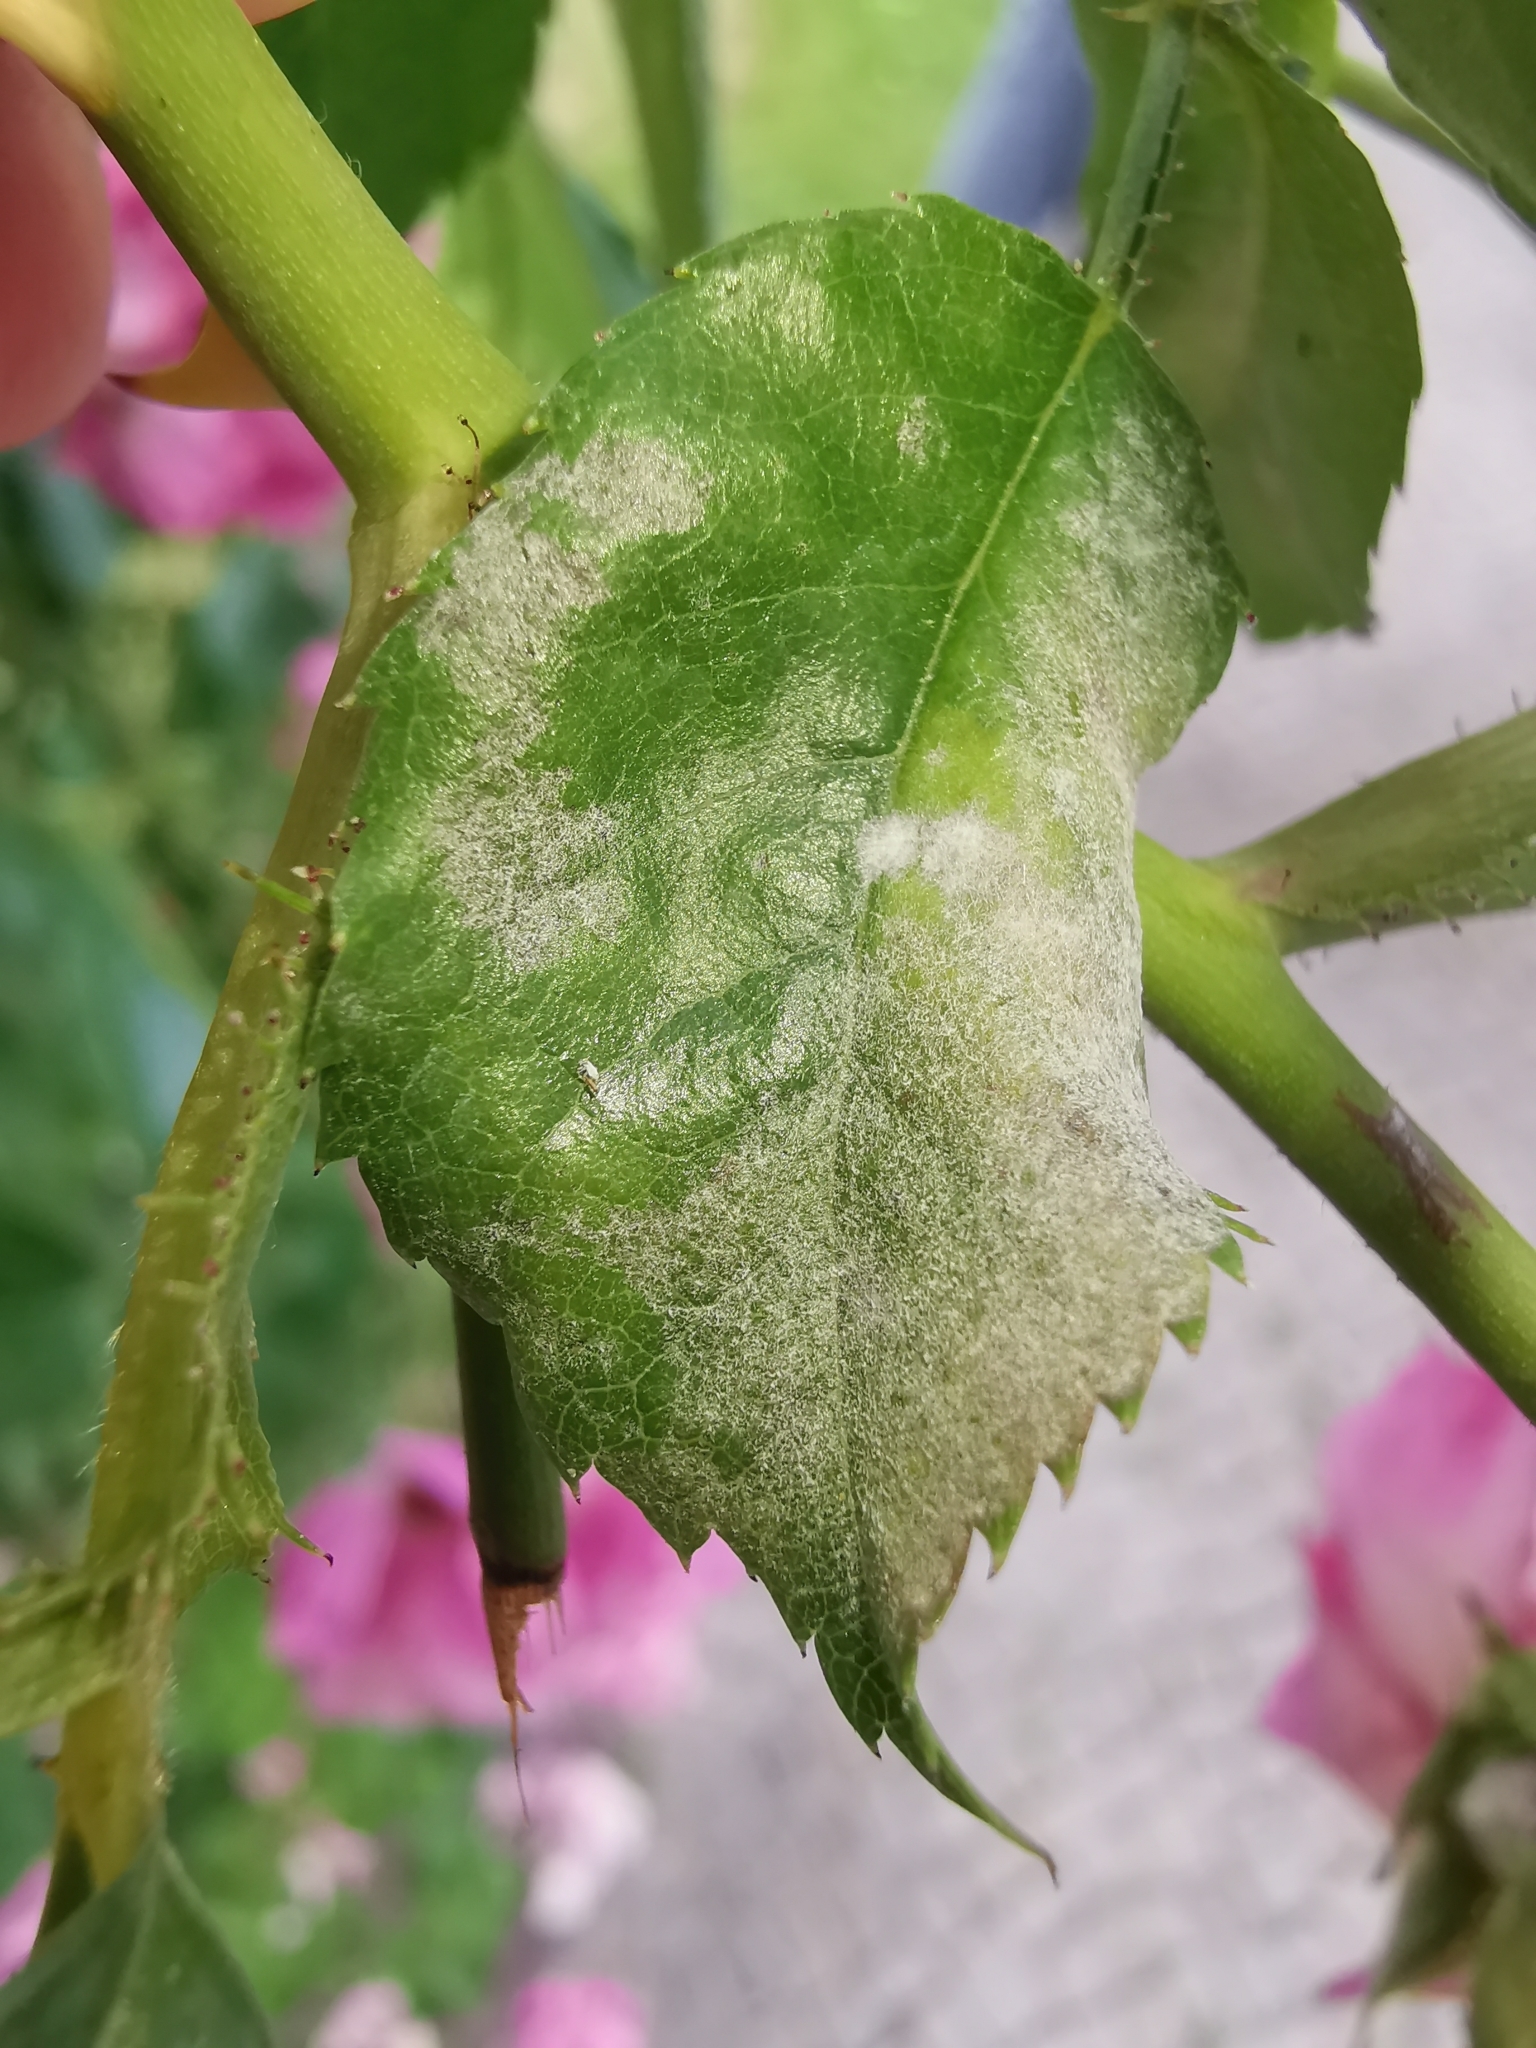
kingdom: Fungi
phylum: Ascomycota
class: Leotiomycetes
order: Helotiales
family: Erysiphaceae
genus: Podosphaera
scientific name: Podosphaera pannosa
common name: Rose mildew
